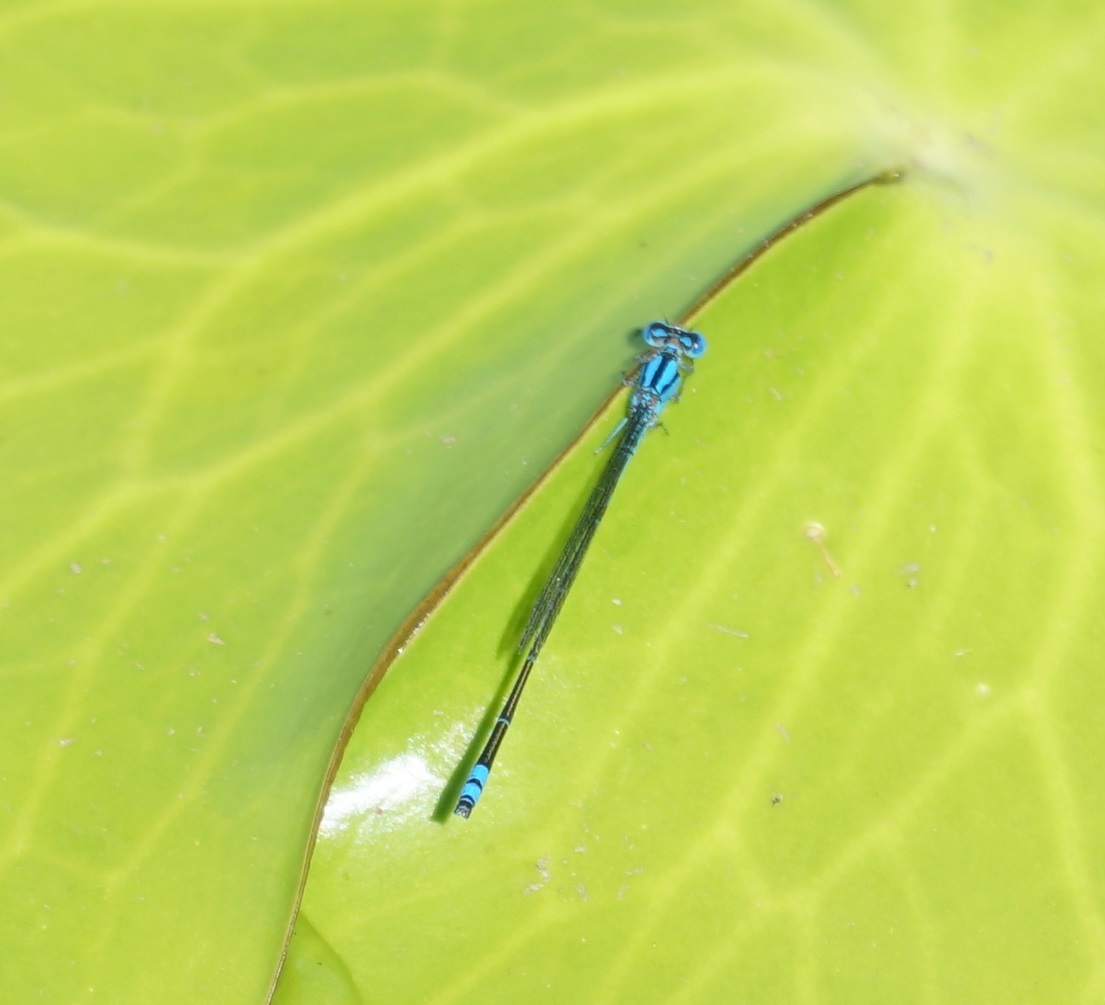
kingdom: Animalia
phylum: Arthropoda
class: Insecta
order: Odonata
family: Coenagrionidae
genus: Pseudagrion
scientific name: Pseudagrion microcephalum
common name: Blue riverdamsel
